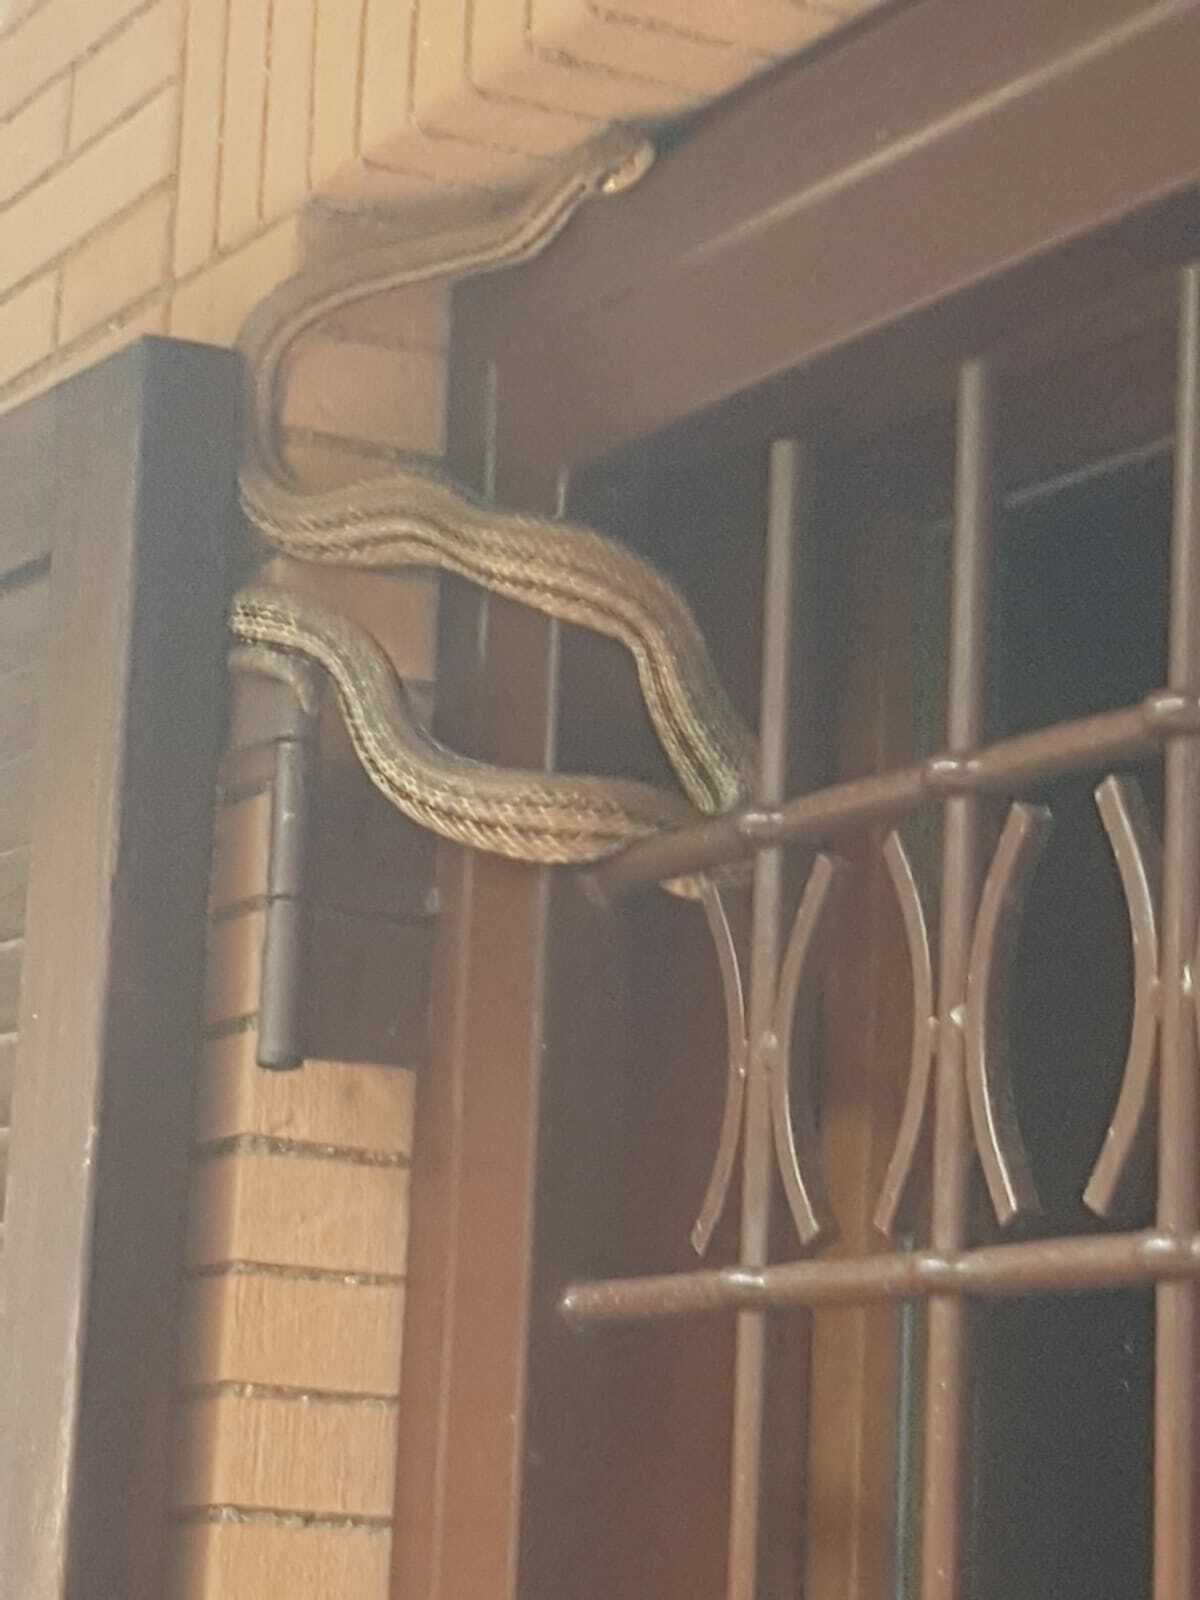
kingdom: Animalia
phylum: Chordata
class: Squamata
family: Colubridae
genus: Elaphe
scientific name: Elaphe quatuorlineata
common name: Four-lined snake
